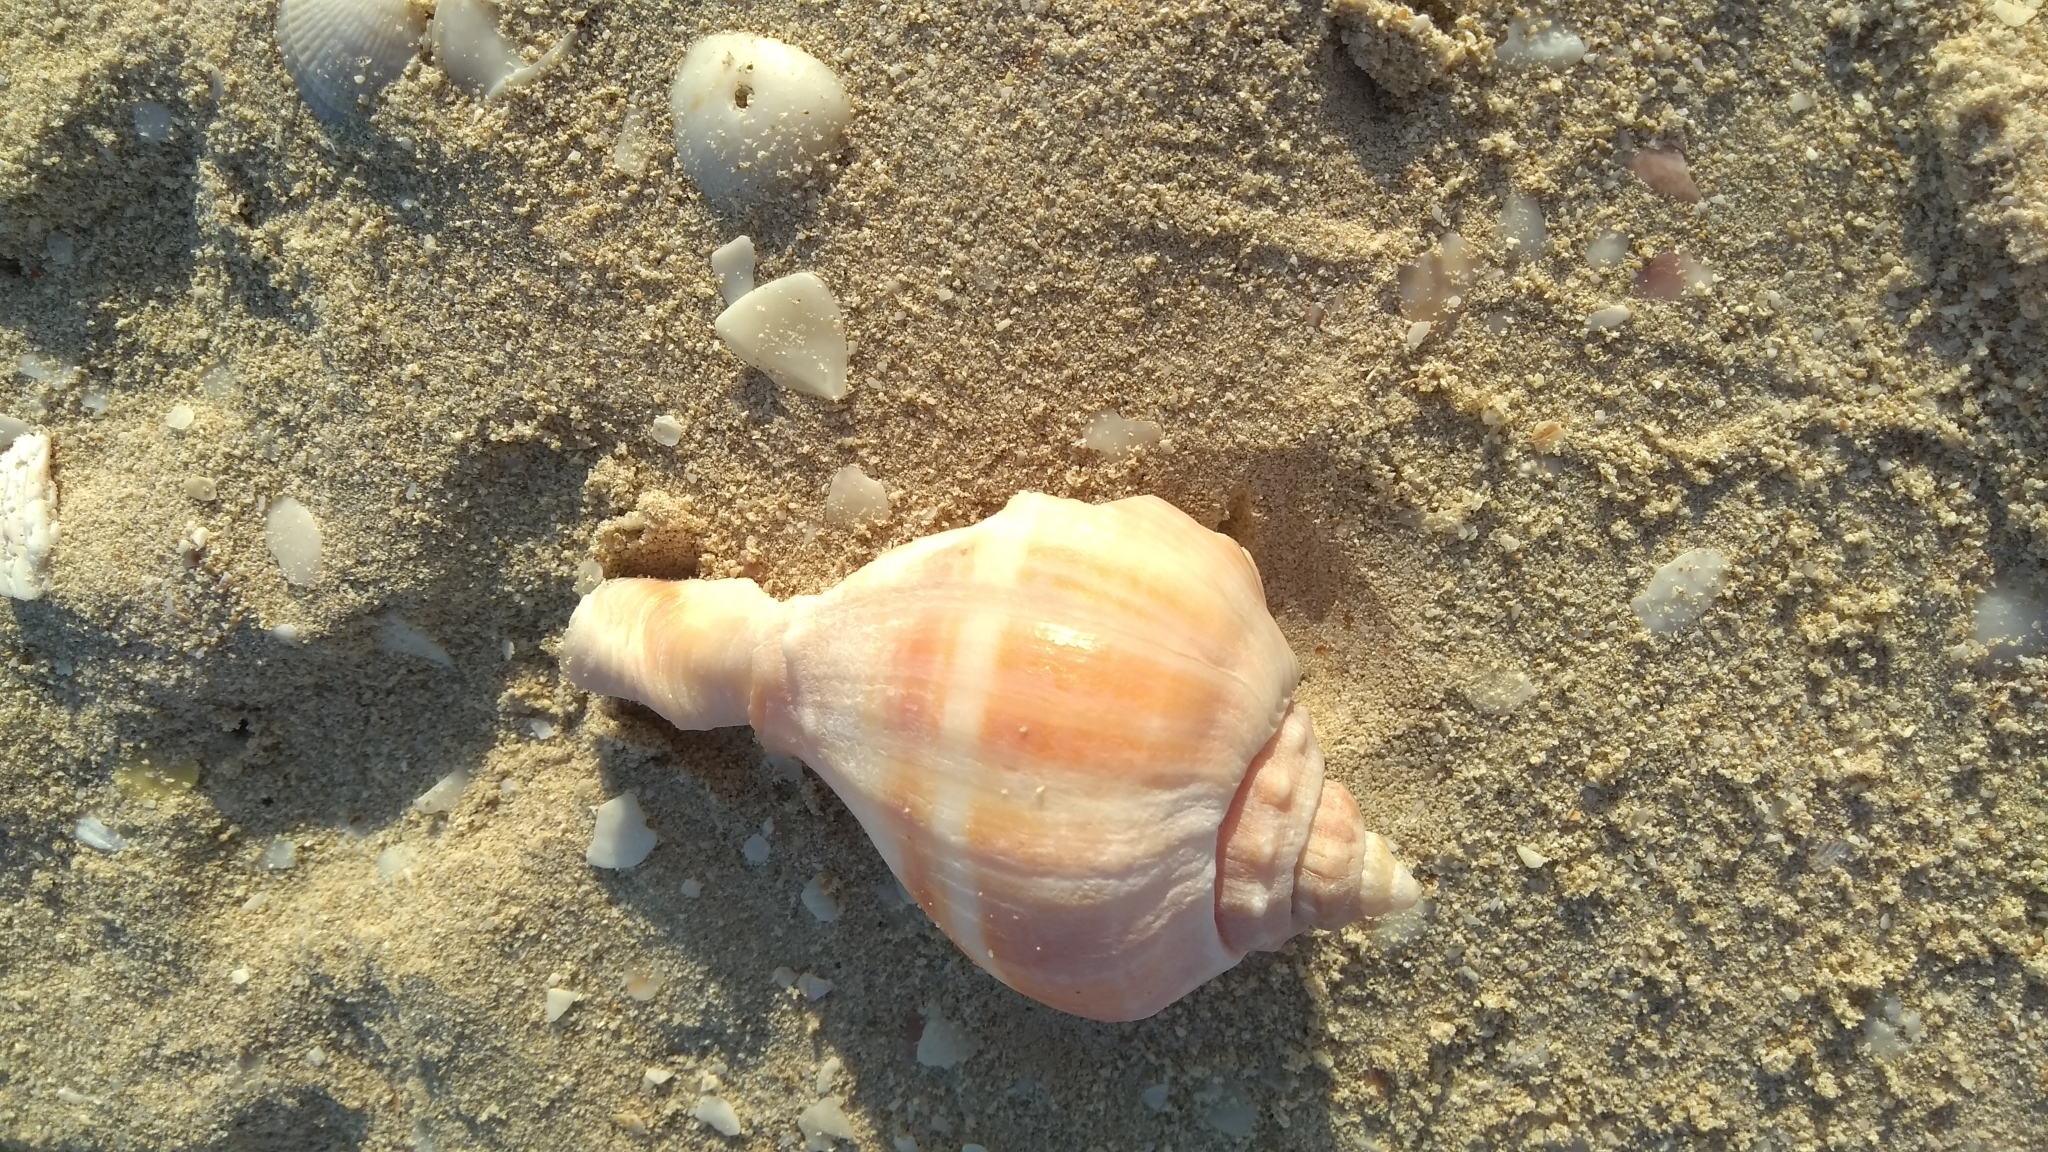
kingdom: Animalia
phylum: Mollusca
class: Gastropoda
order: Neogastropoda
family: Melongenidae
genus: Melongena
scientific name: Melongena melongena
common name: West indian crown conch
